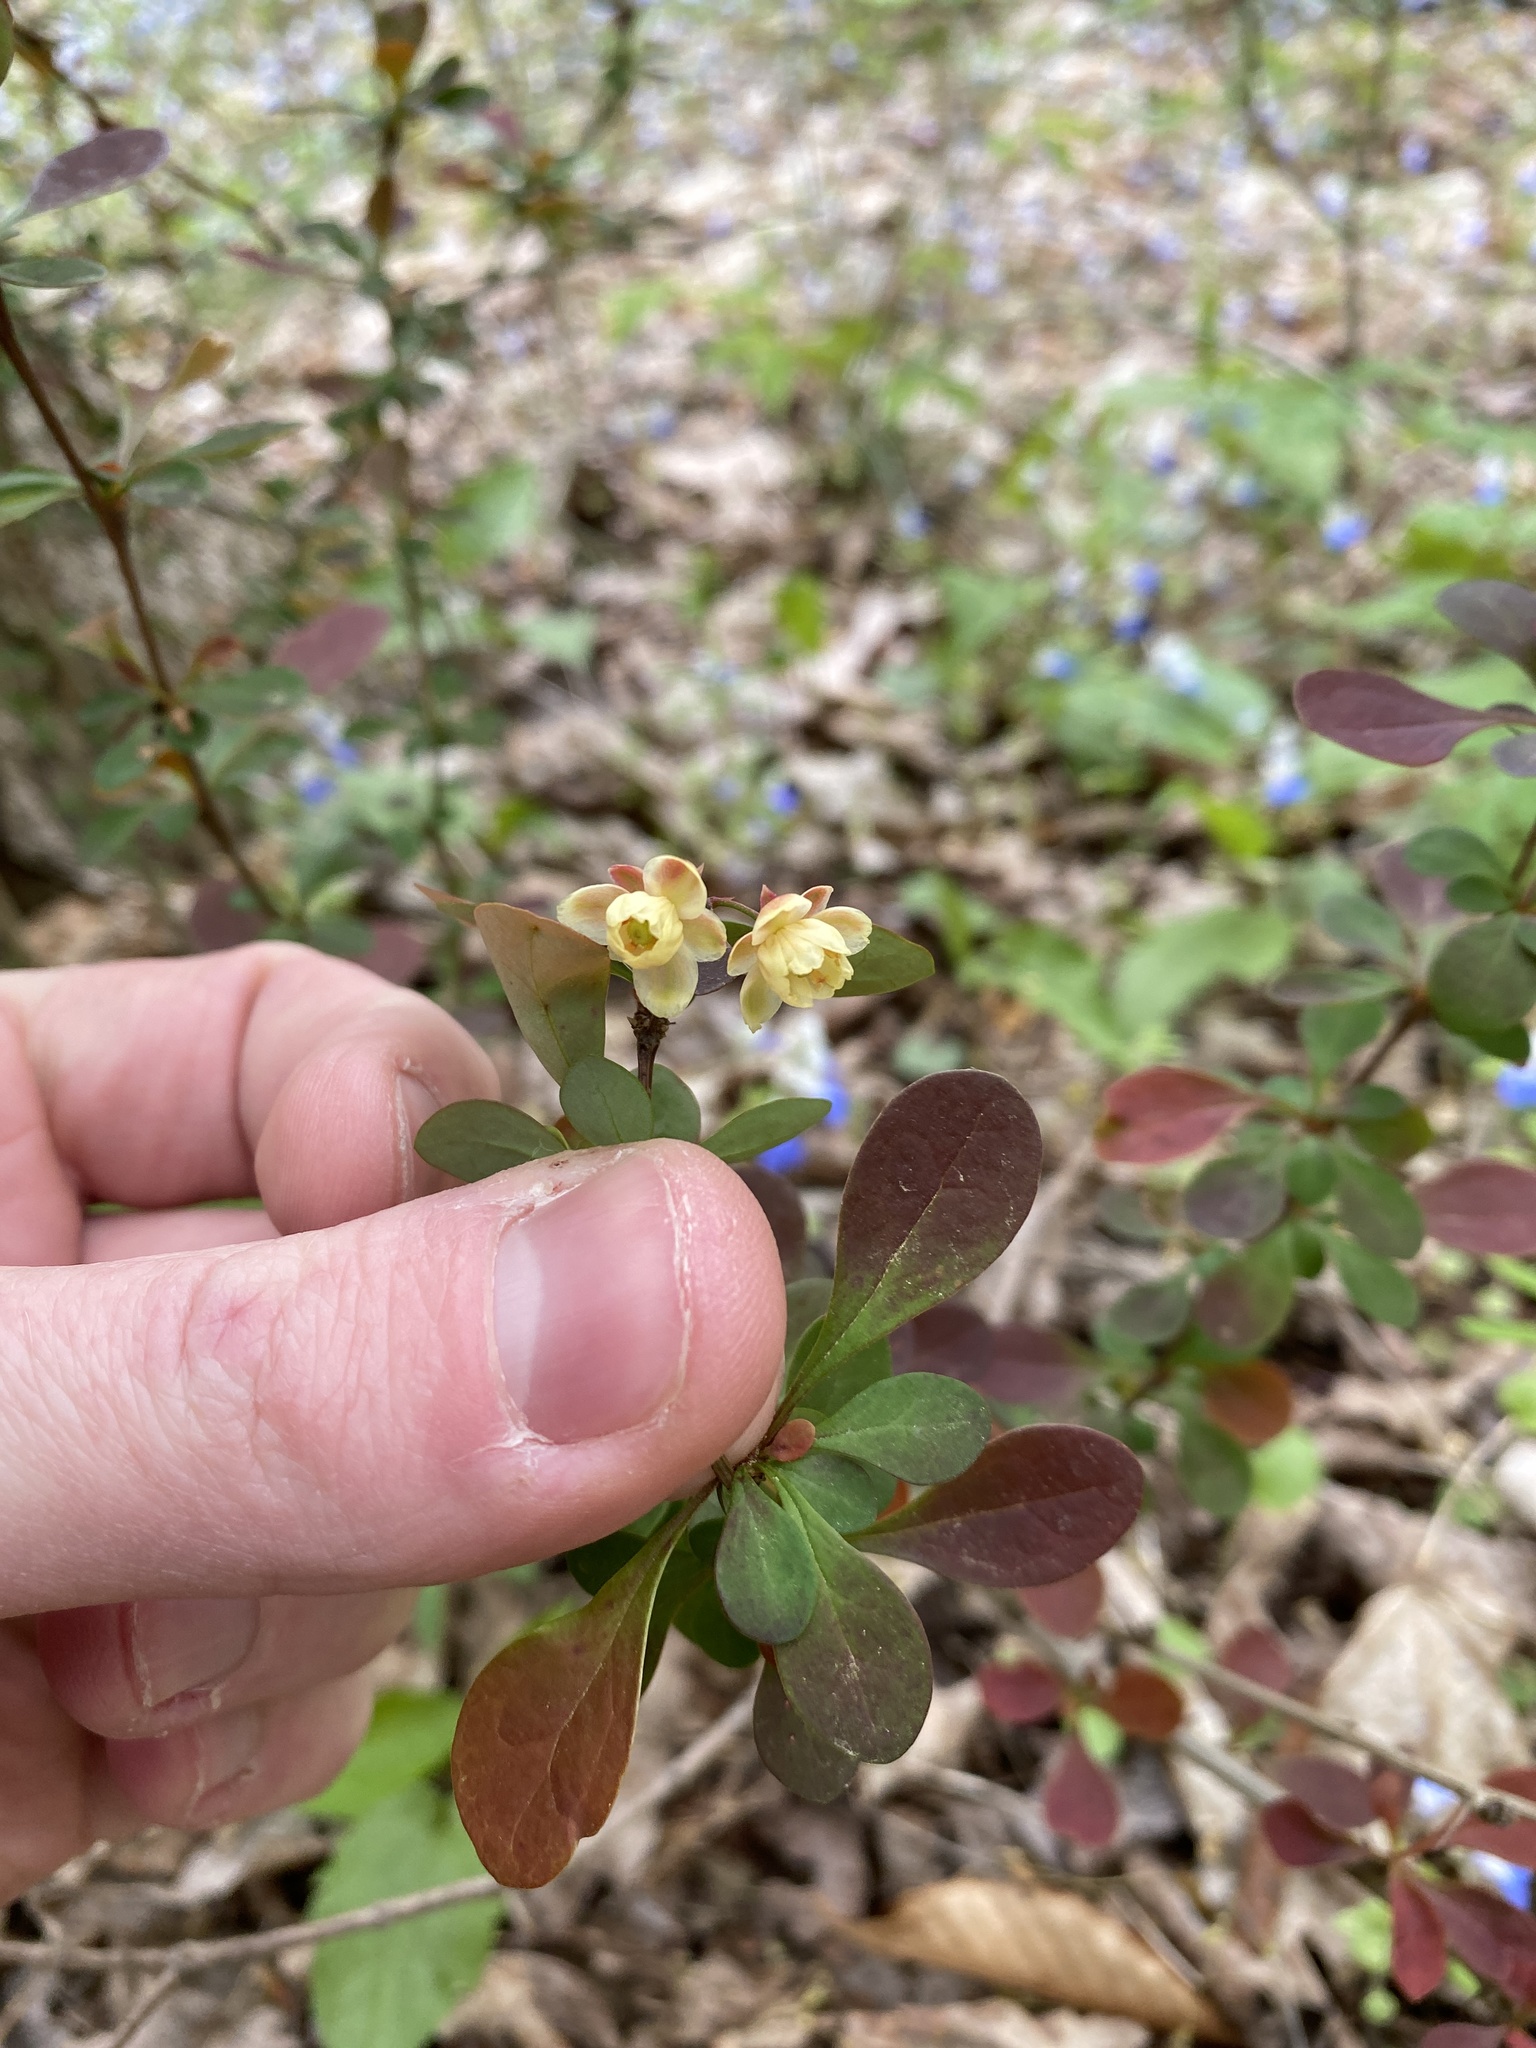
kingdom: Plantae
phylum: Tracheophyta
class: Magnoliopsida
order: Ranunculales
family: Berberidaceae
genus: Berberis
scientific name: Berberis thunbergii
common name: Japanese barberry
